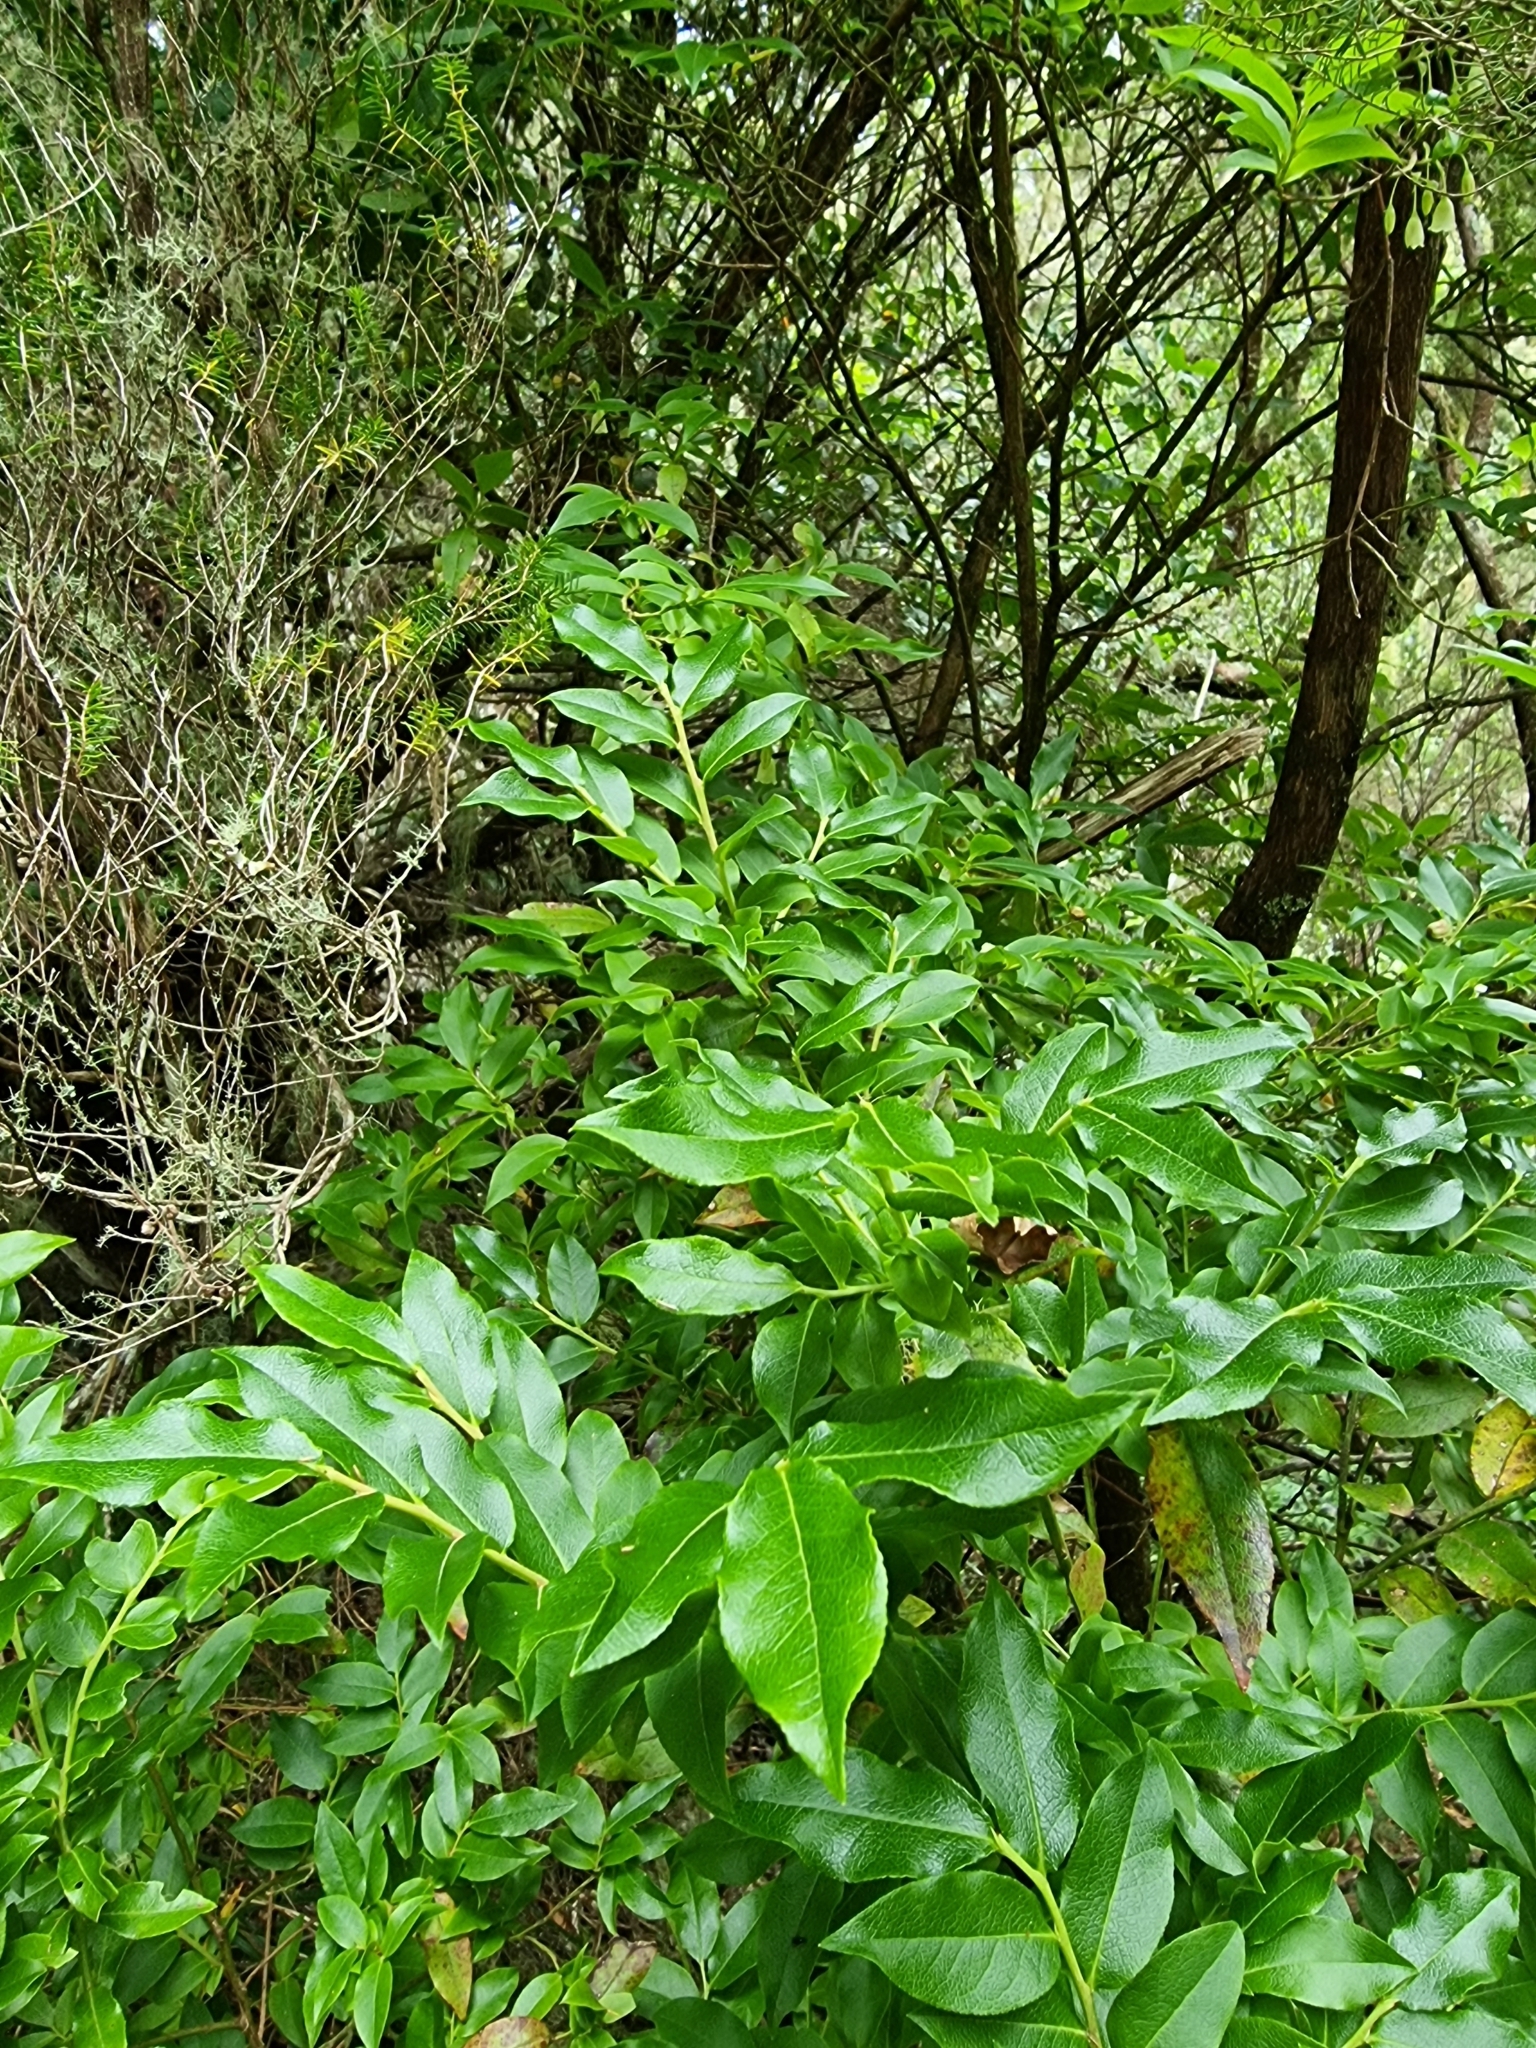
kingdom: Plantae
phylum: Tracheophyta
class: Magnoliopsida
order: Ericales
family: Ericaceae
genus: Vaccinium
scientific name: Vaccinium padifolium
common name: Madeiran blueberry
